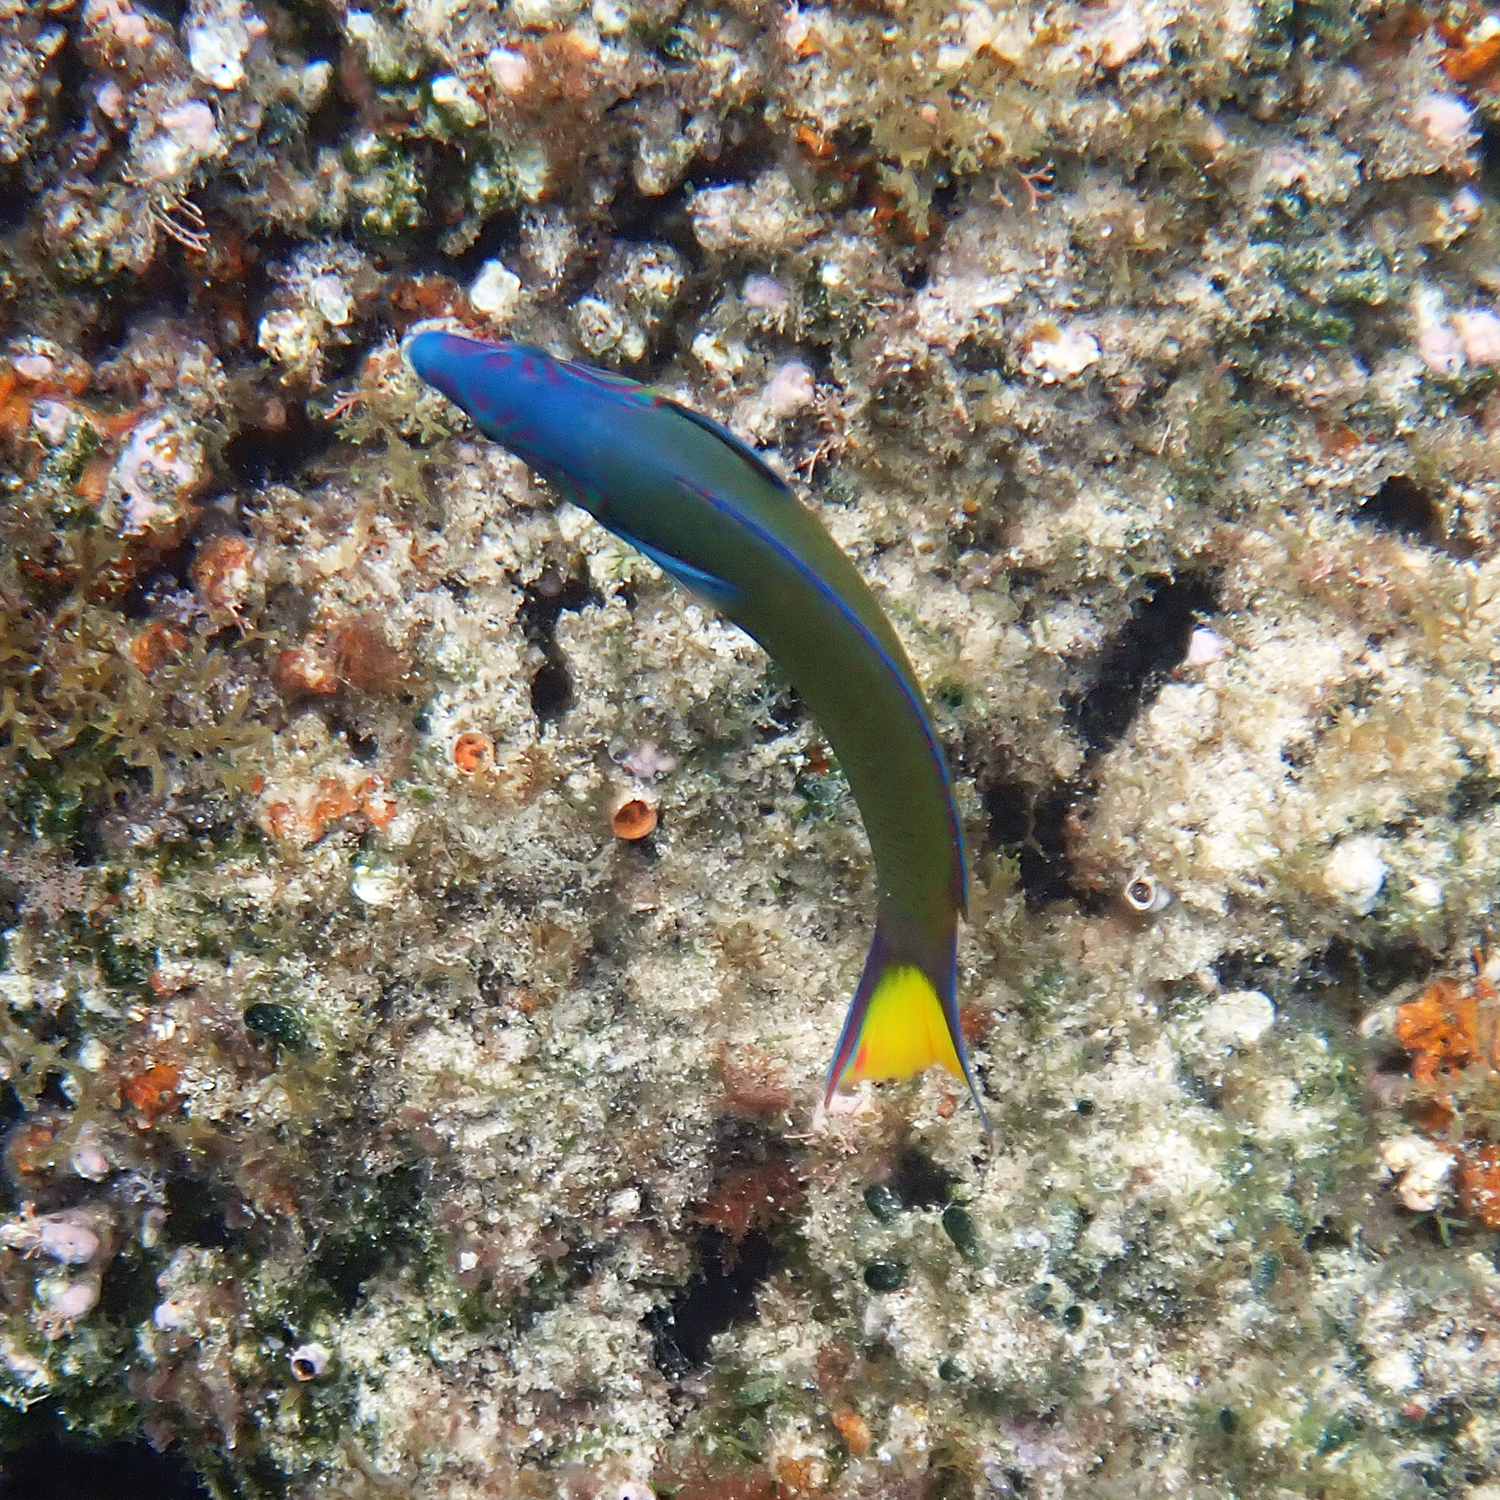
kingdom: Animalia
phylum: Chordata
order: Perciformes
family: Labridae
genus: Thalassoma
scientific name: Thalassoma lunare
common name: Blue wrasse
